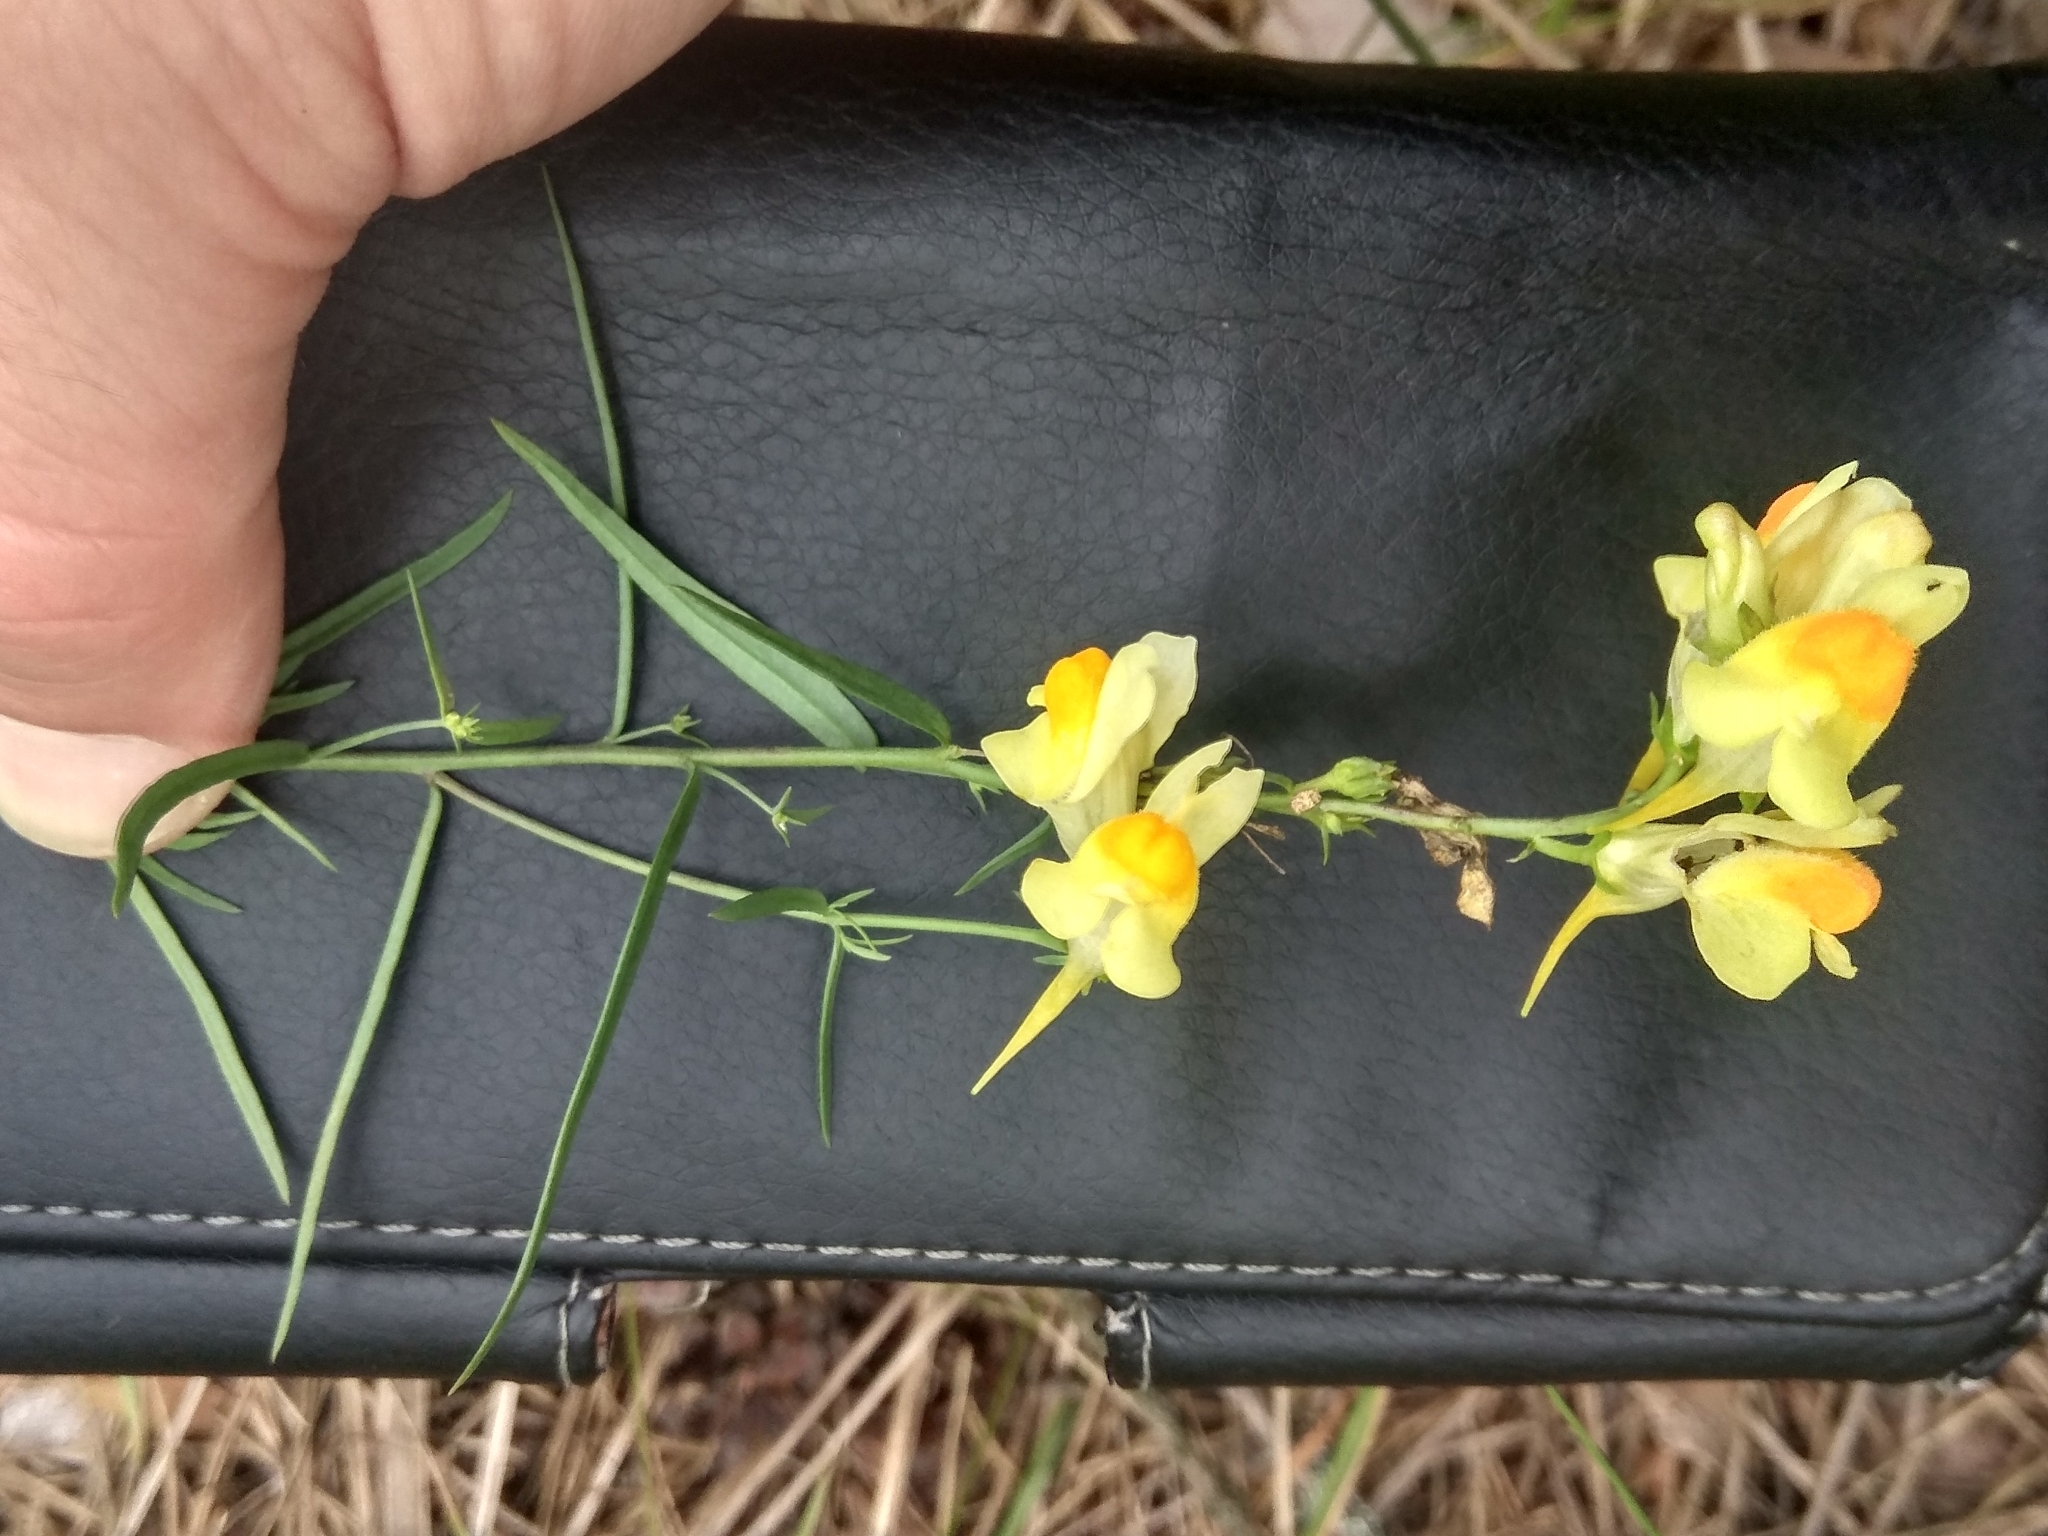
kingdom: Plantae
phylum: Tracheophyta
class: Magnoliopsida
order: Lamiales
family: Plantaginaceae
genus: Linaria
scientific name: Linaria vulgaris
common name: Butter and eggs
